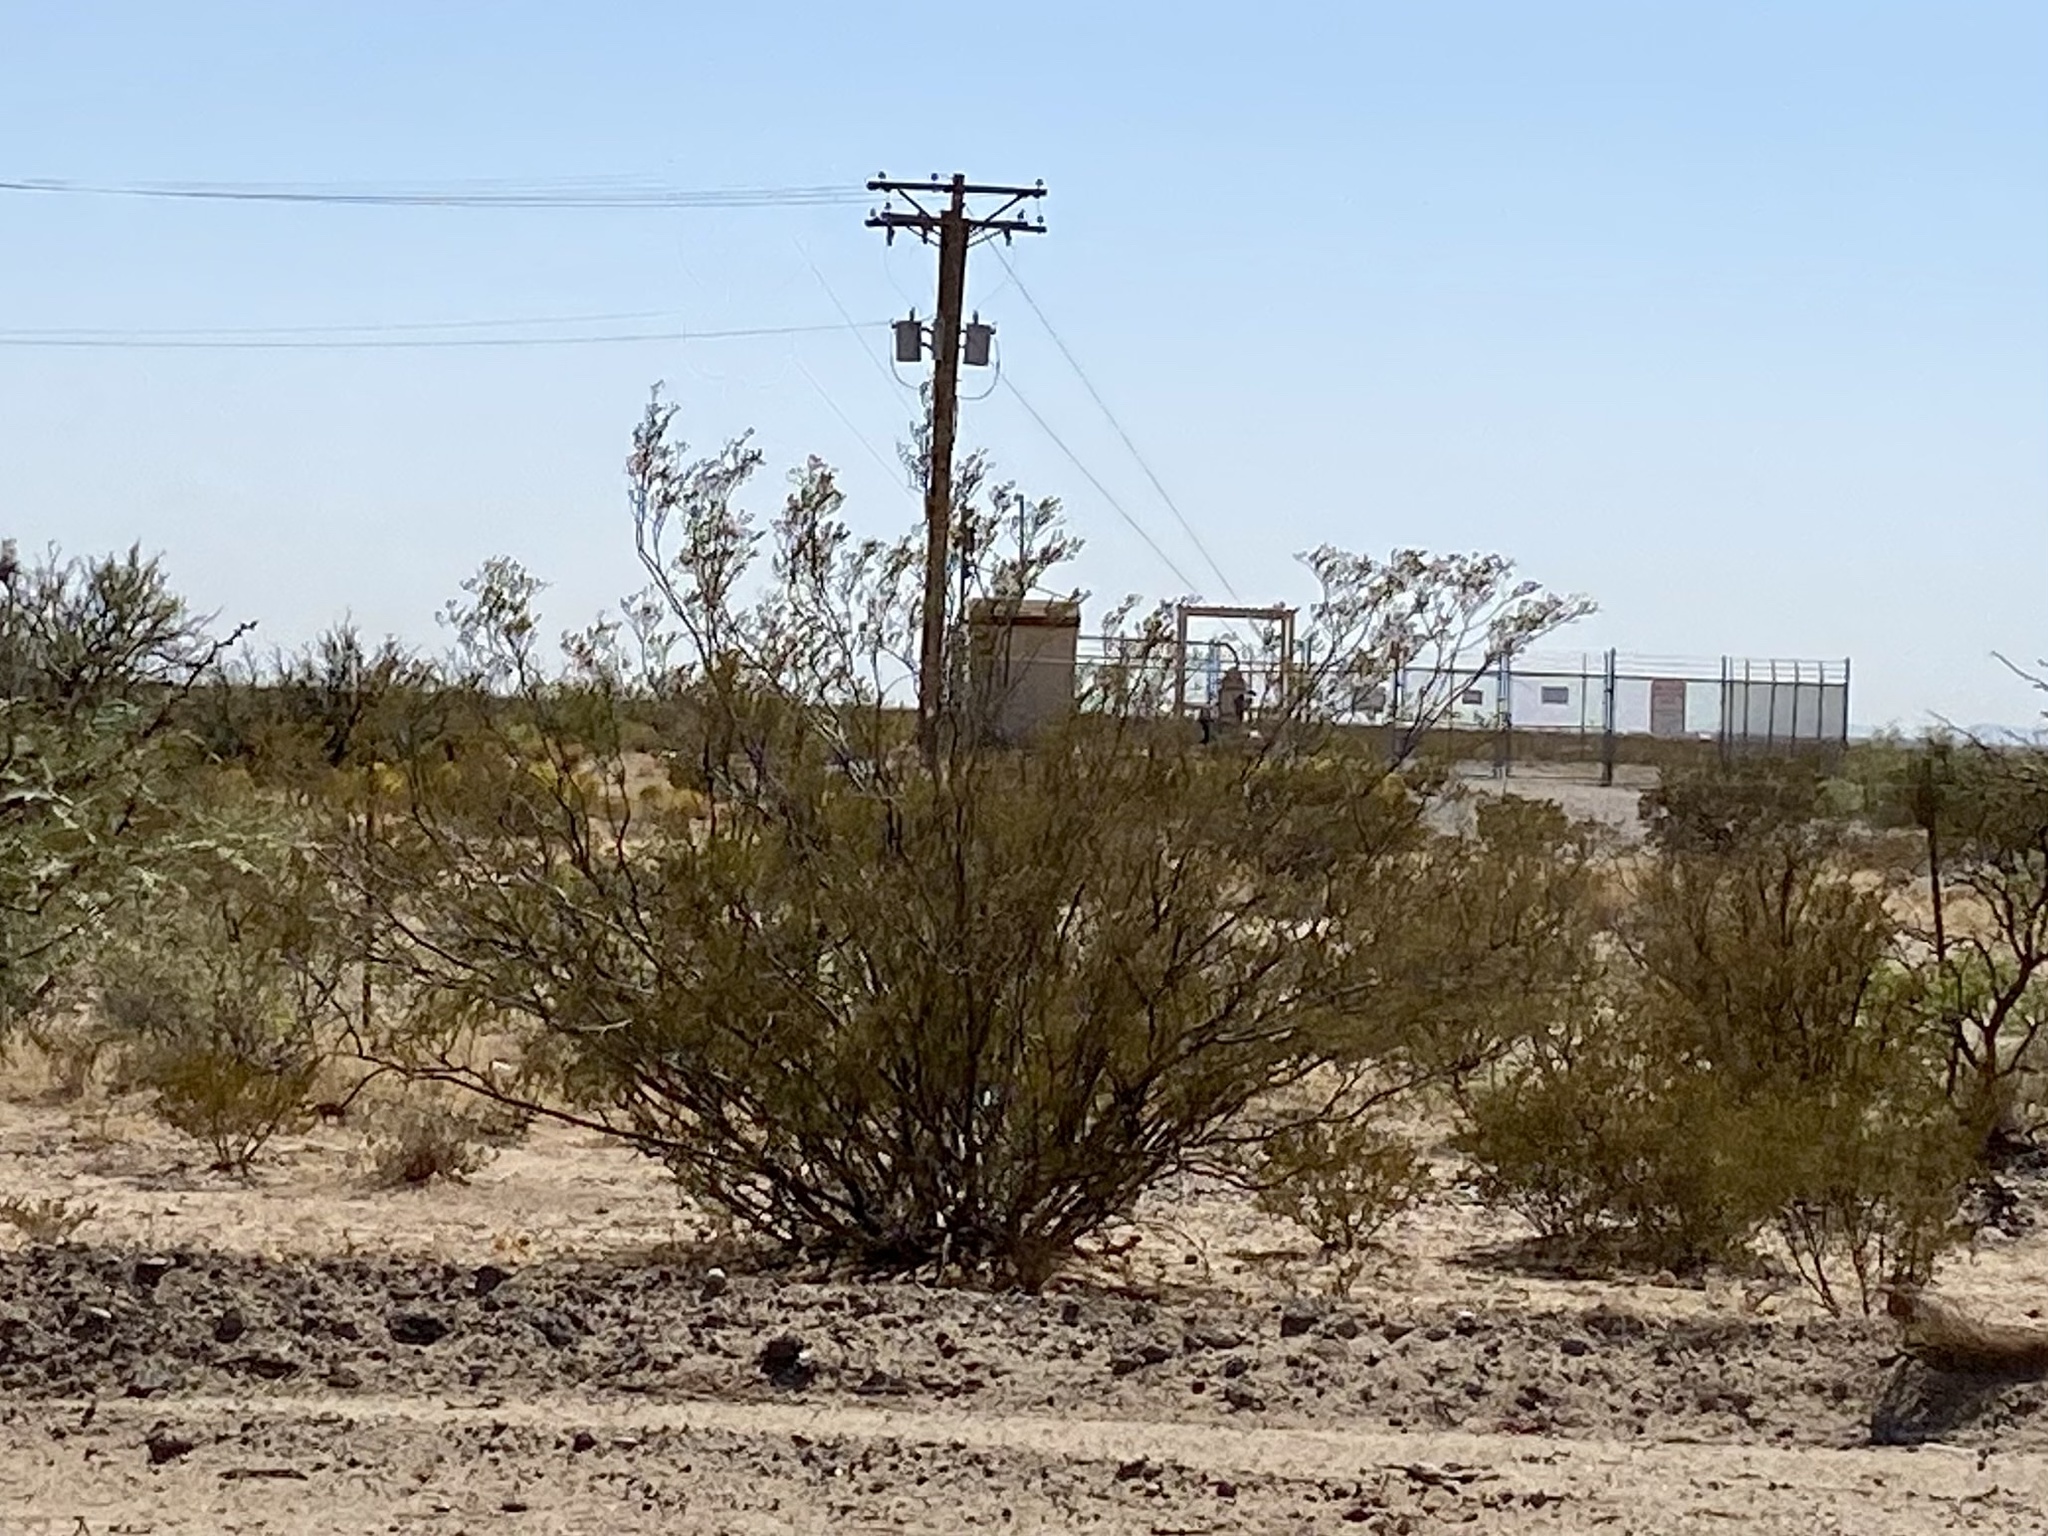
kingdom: Plantae
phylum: Tracheophyta
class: Magnoliopsida
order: Zygophyllales
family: Zygophyllaceae
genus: Larrea
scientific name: Larrea tridentata
